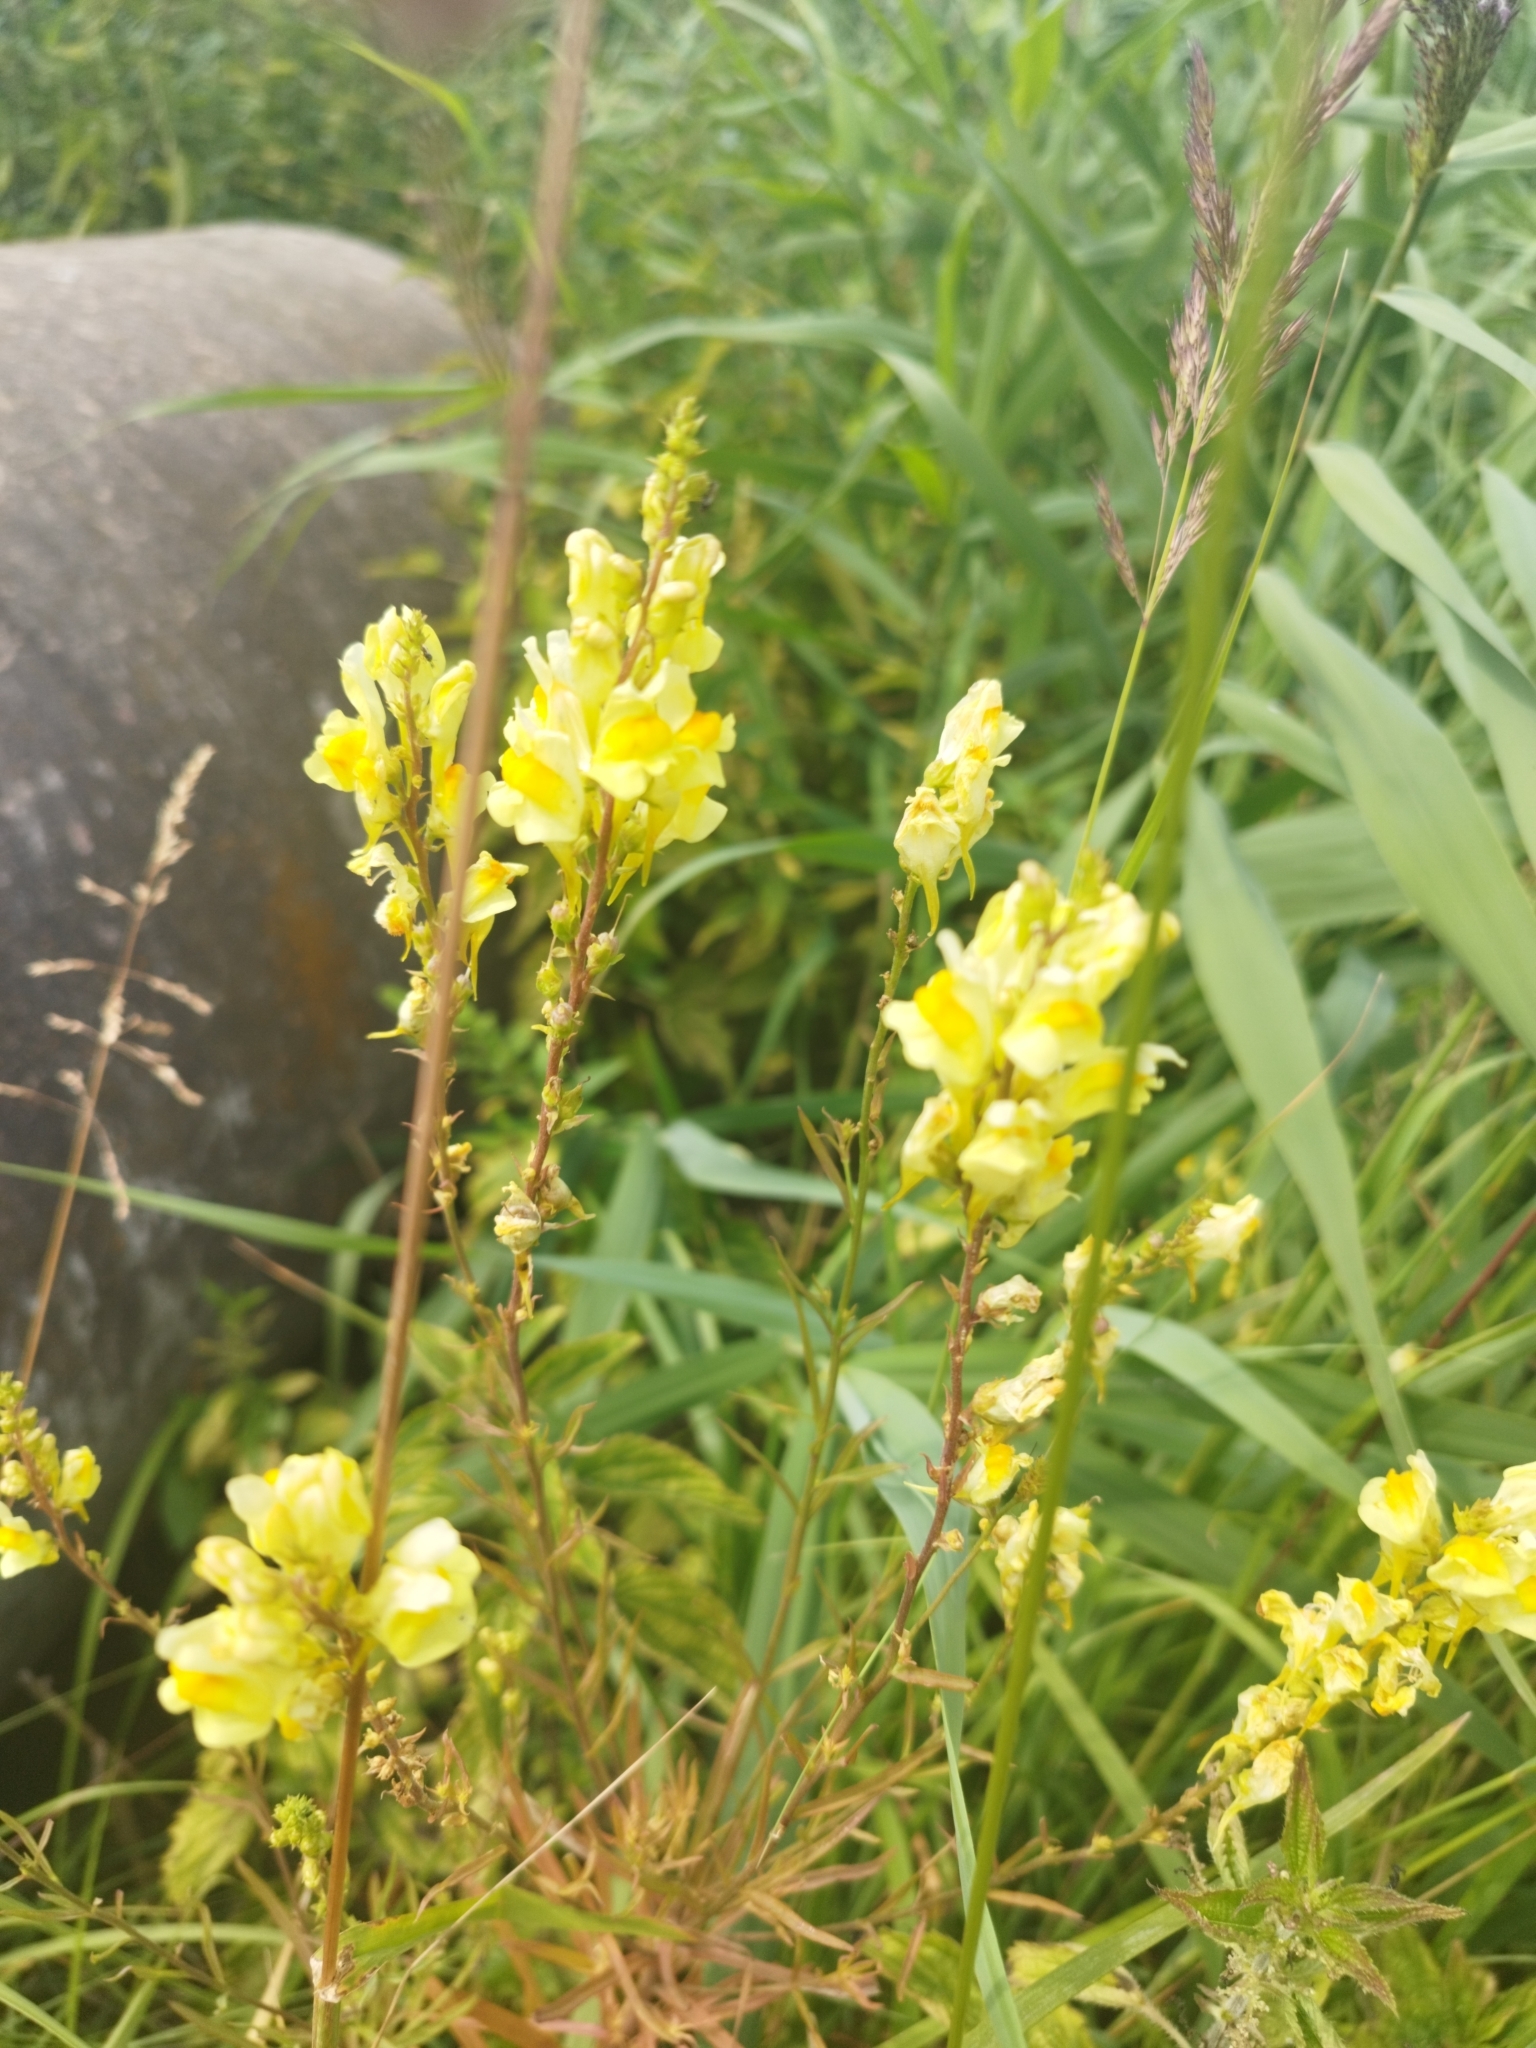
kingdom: Plantae
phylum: Tracheophyta
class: Magnoliopsida
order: Lamiales
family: Plantaginaceae
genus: Linaria
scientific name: Linaria vulgaris
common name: Butter and eggs
